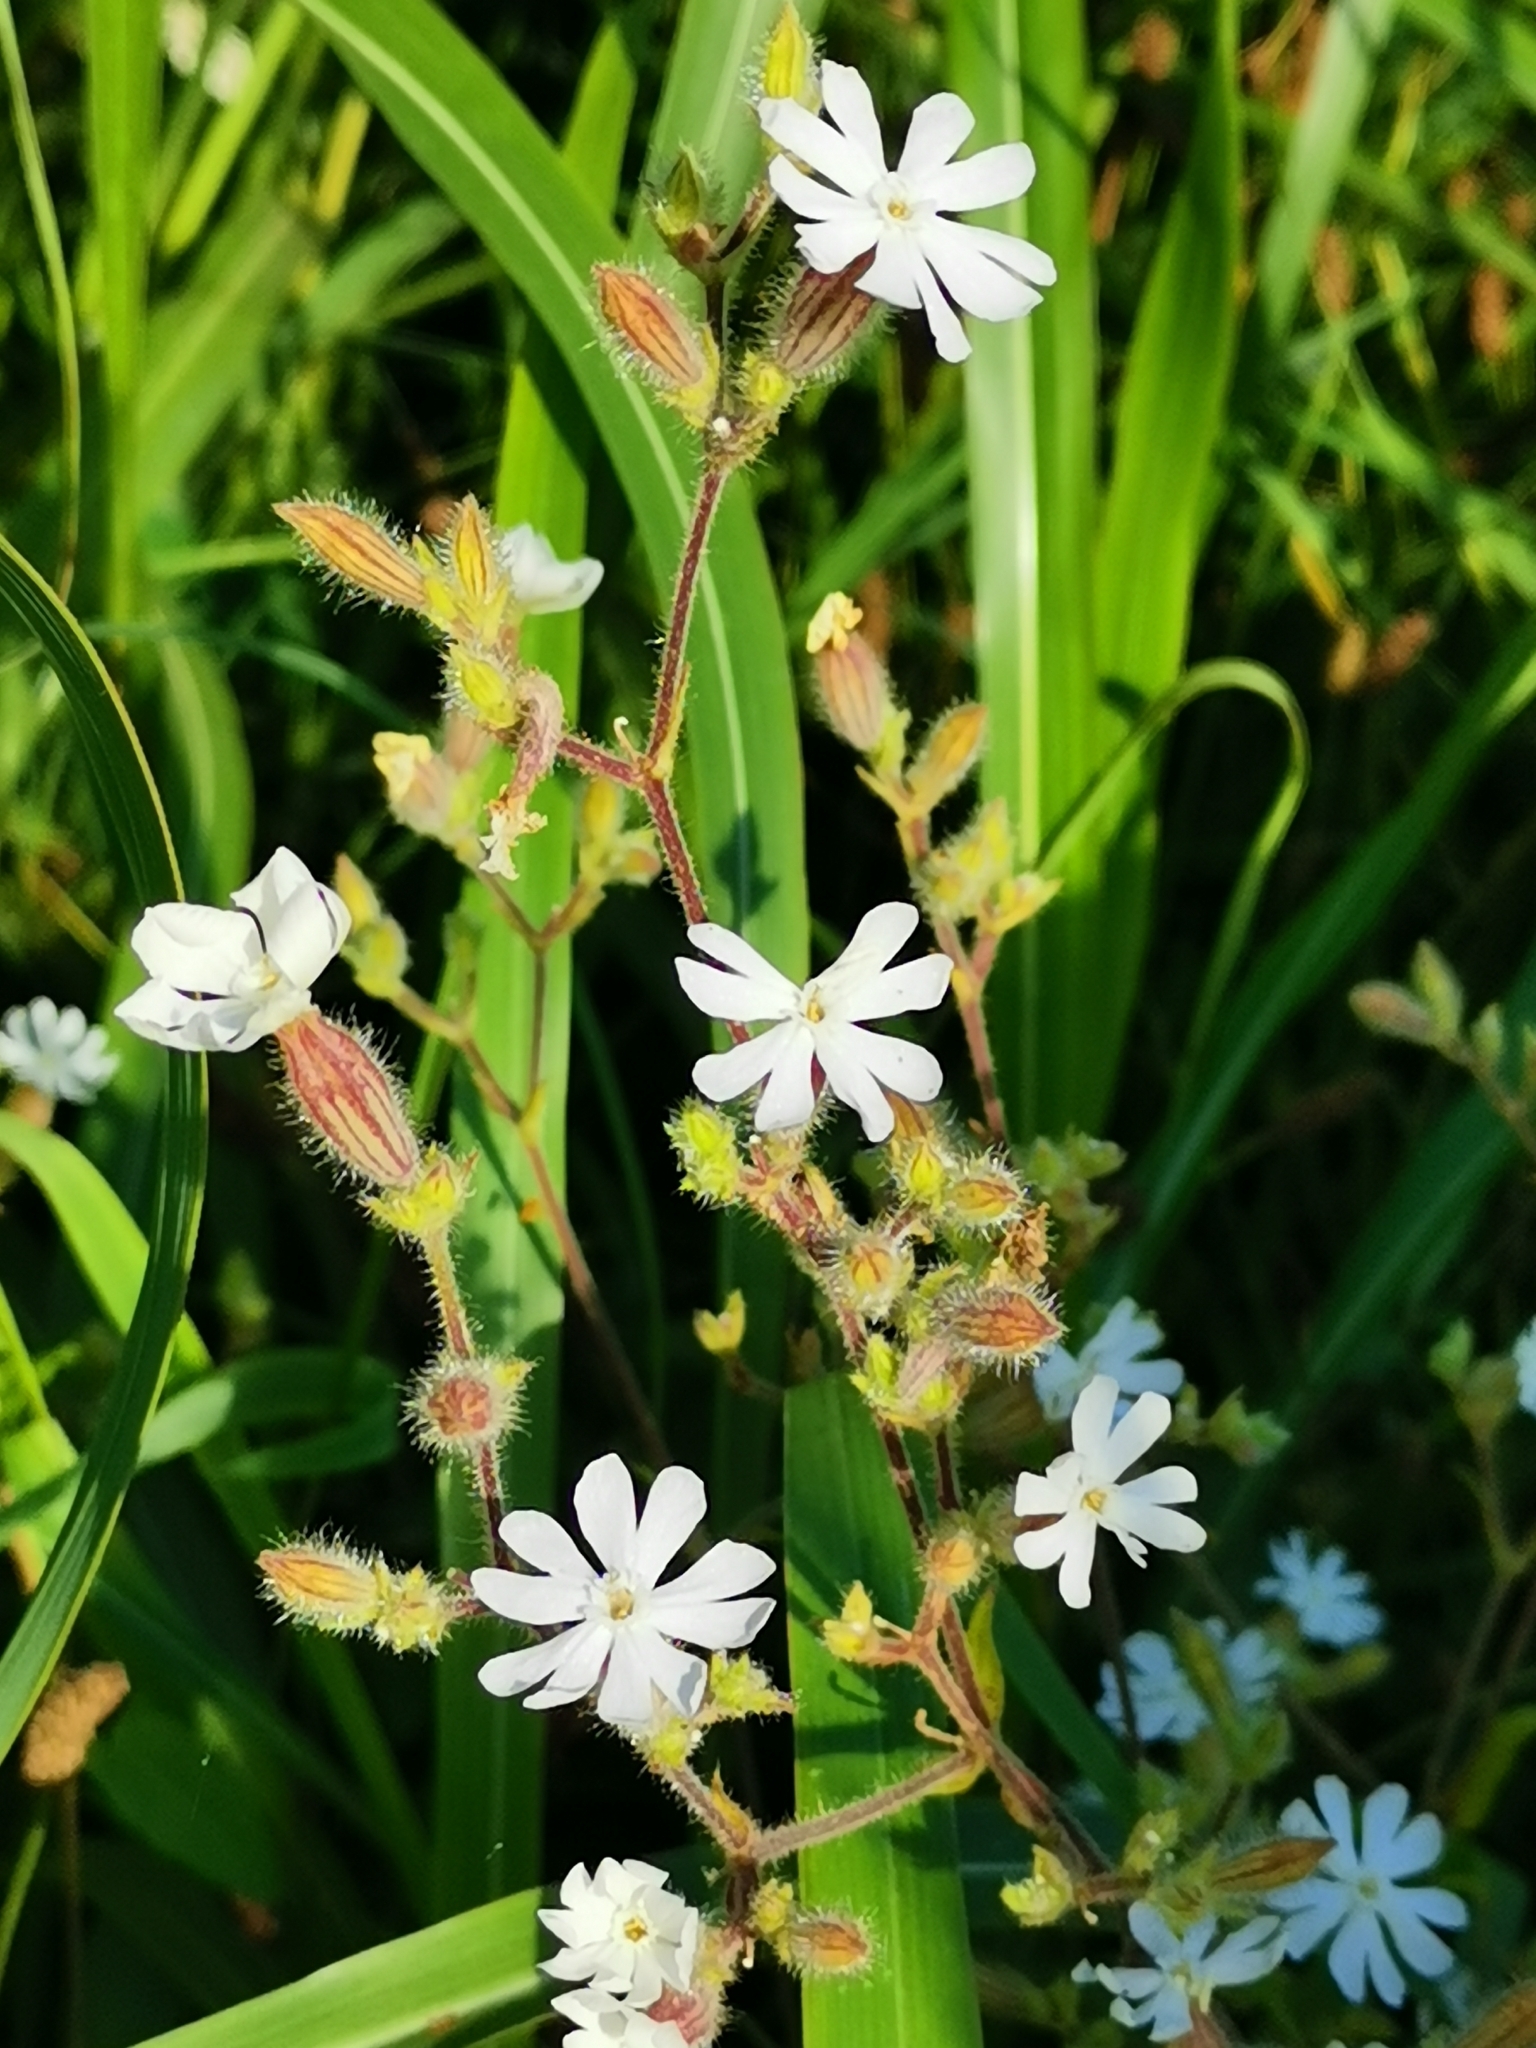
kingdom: Plantae
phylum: Tracheophyta
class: Magnoliopsida
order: Caryophyllales
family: Caryophyllaceae
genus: Silene
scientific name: Silene latifolia
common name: White campion
